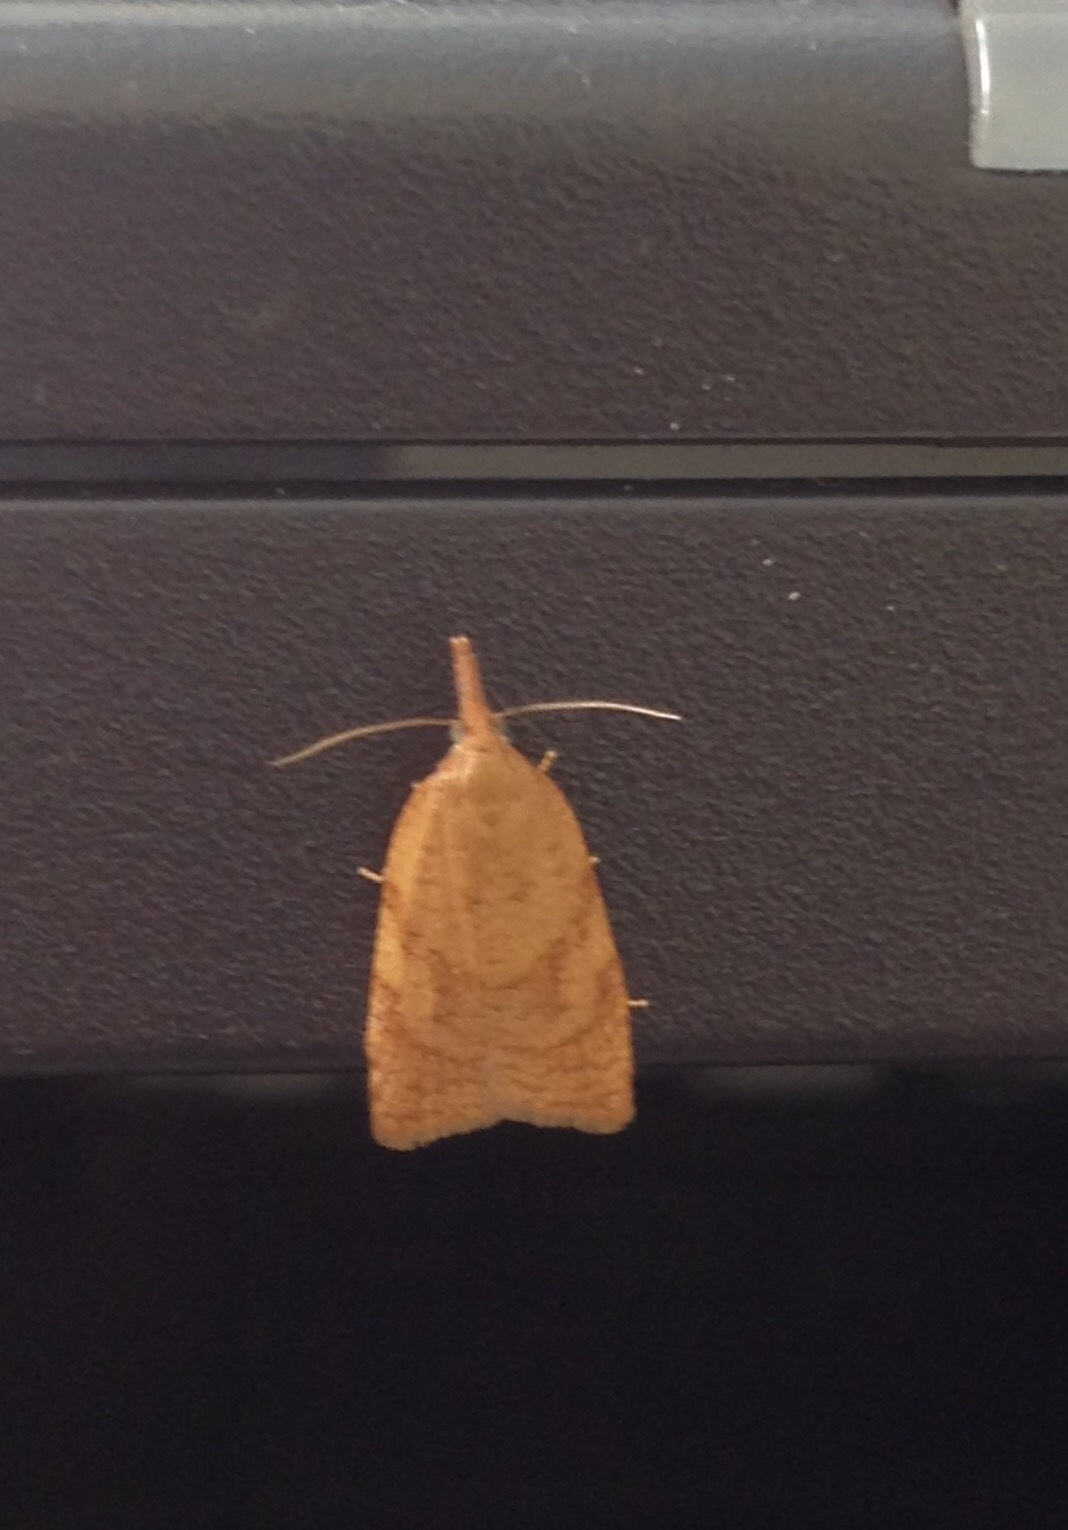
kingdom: Animalia
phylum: Arthropoda
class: Insecta
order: Lepidoptera
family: Tortricidae
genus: Sparganothis
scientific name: Sparganothis pilleriana
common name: Vine leaf-roller tortrix, long-nosed twist
